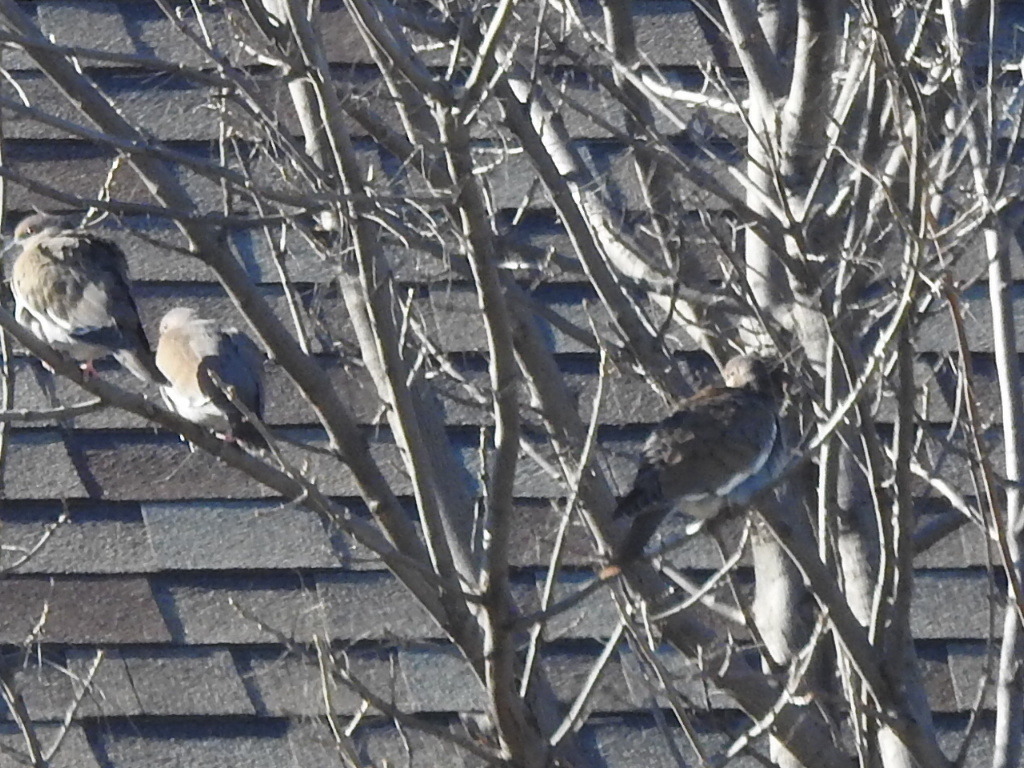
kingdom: Animalia
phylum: Chordata
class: Aves
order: Columbiformes
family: Columbidae
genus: Zenaida
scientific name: Zenaida asiatica
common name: White-winged dove
